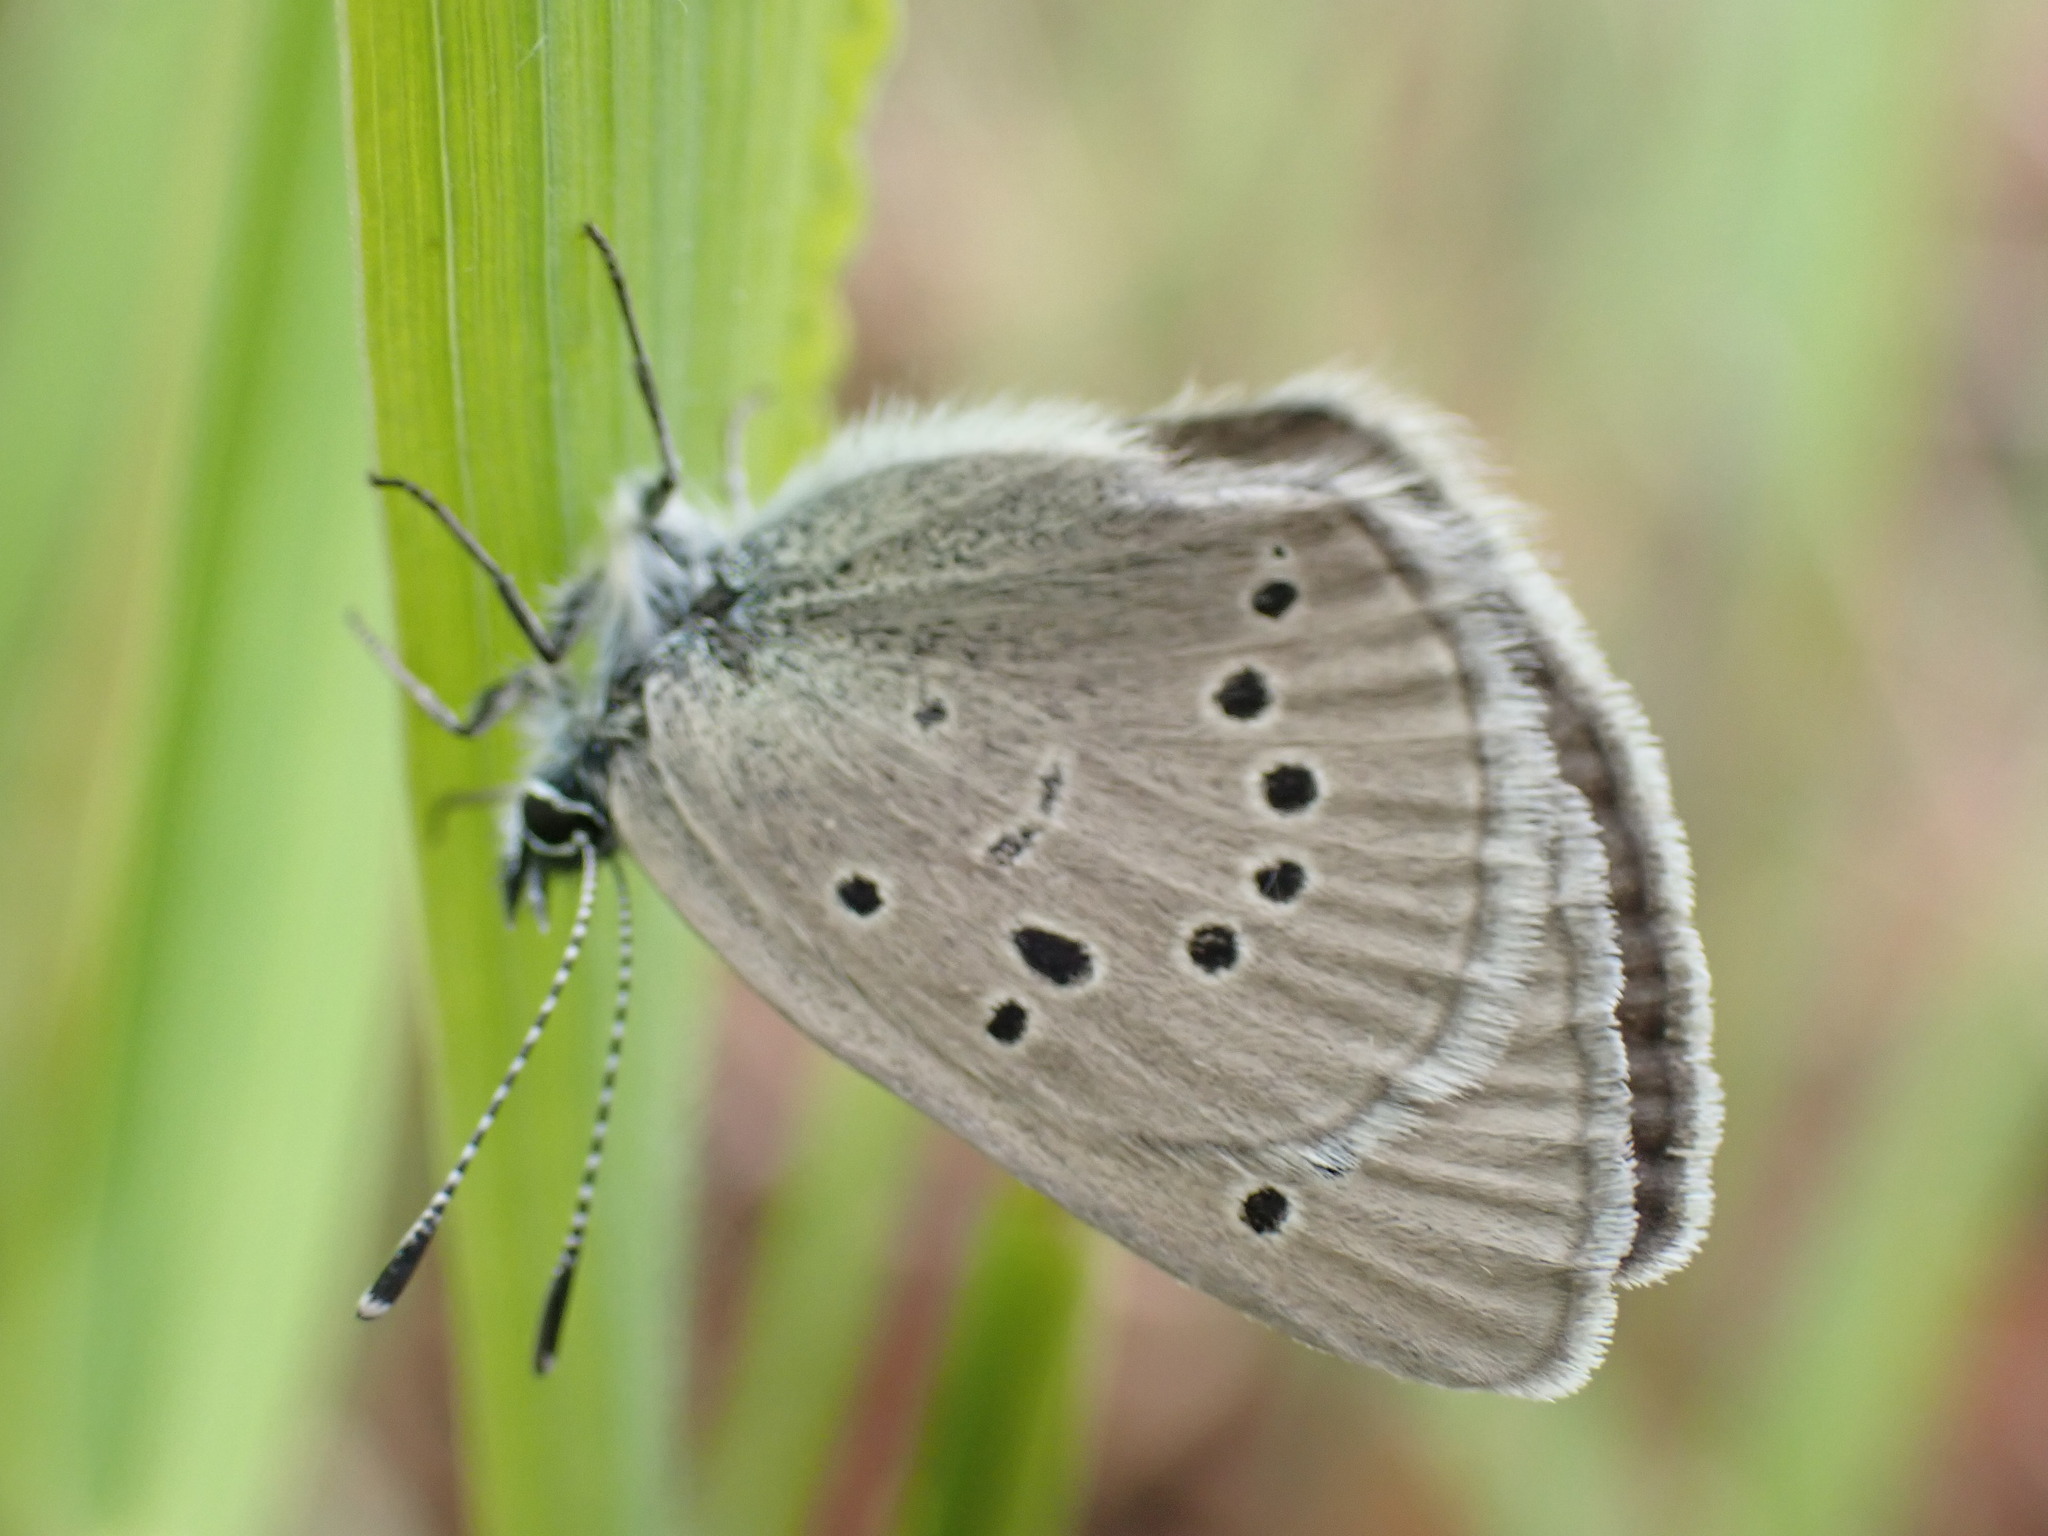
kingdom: Animalia
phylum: Arthropoda
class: Insecta
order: Lepidoptera
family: Lycaenidae
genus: Glaucopsyche
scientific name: Glaucopsyche lygdamus
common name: Silvery blue
